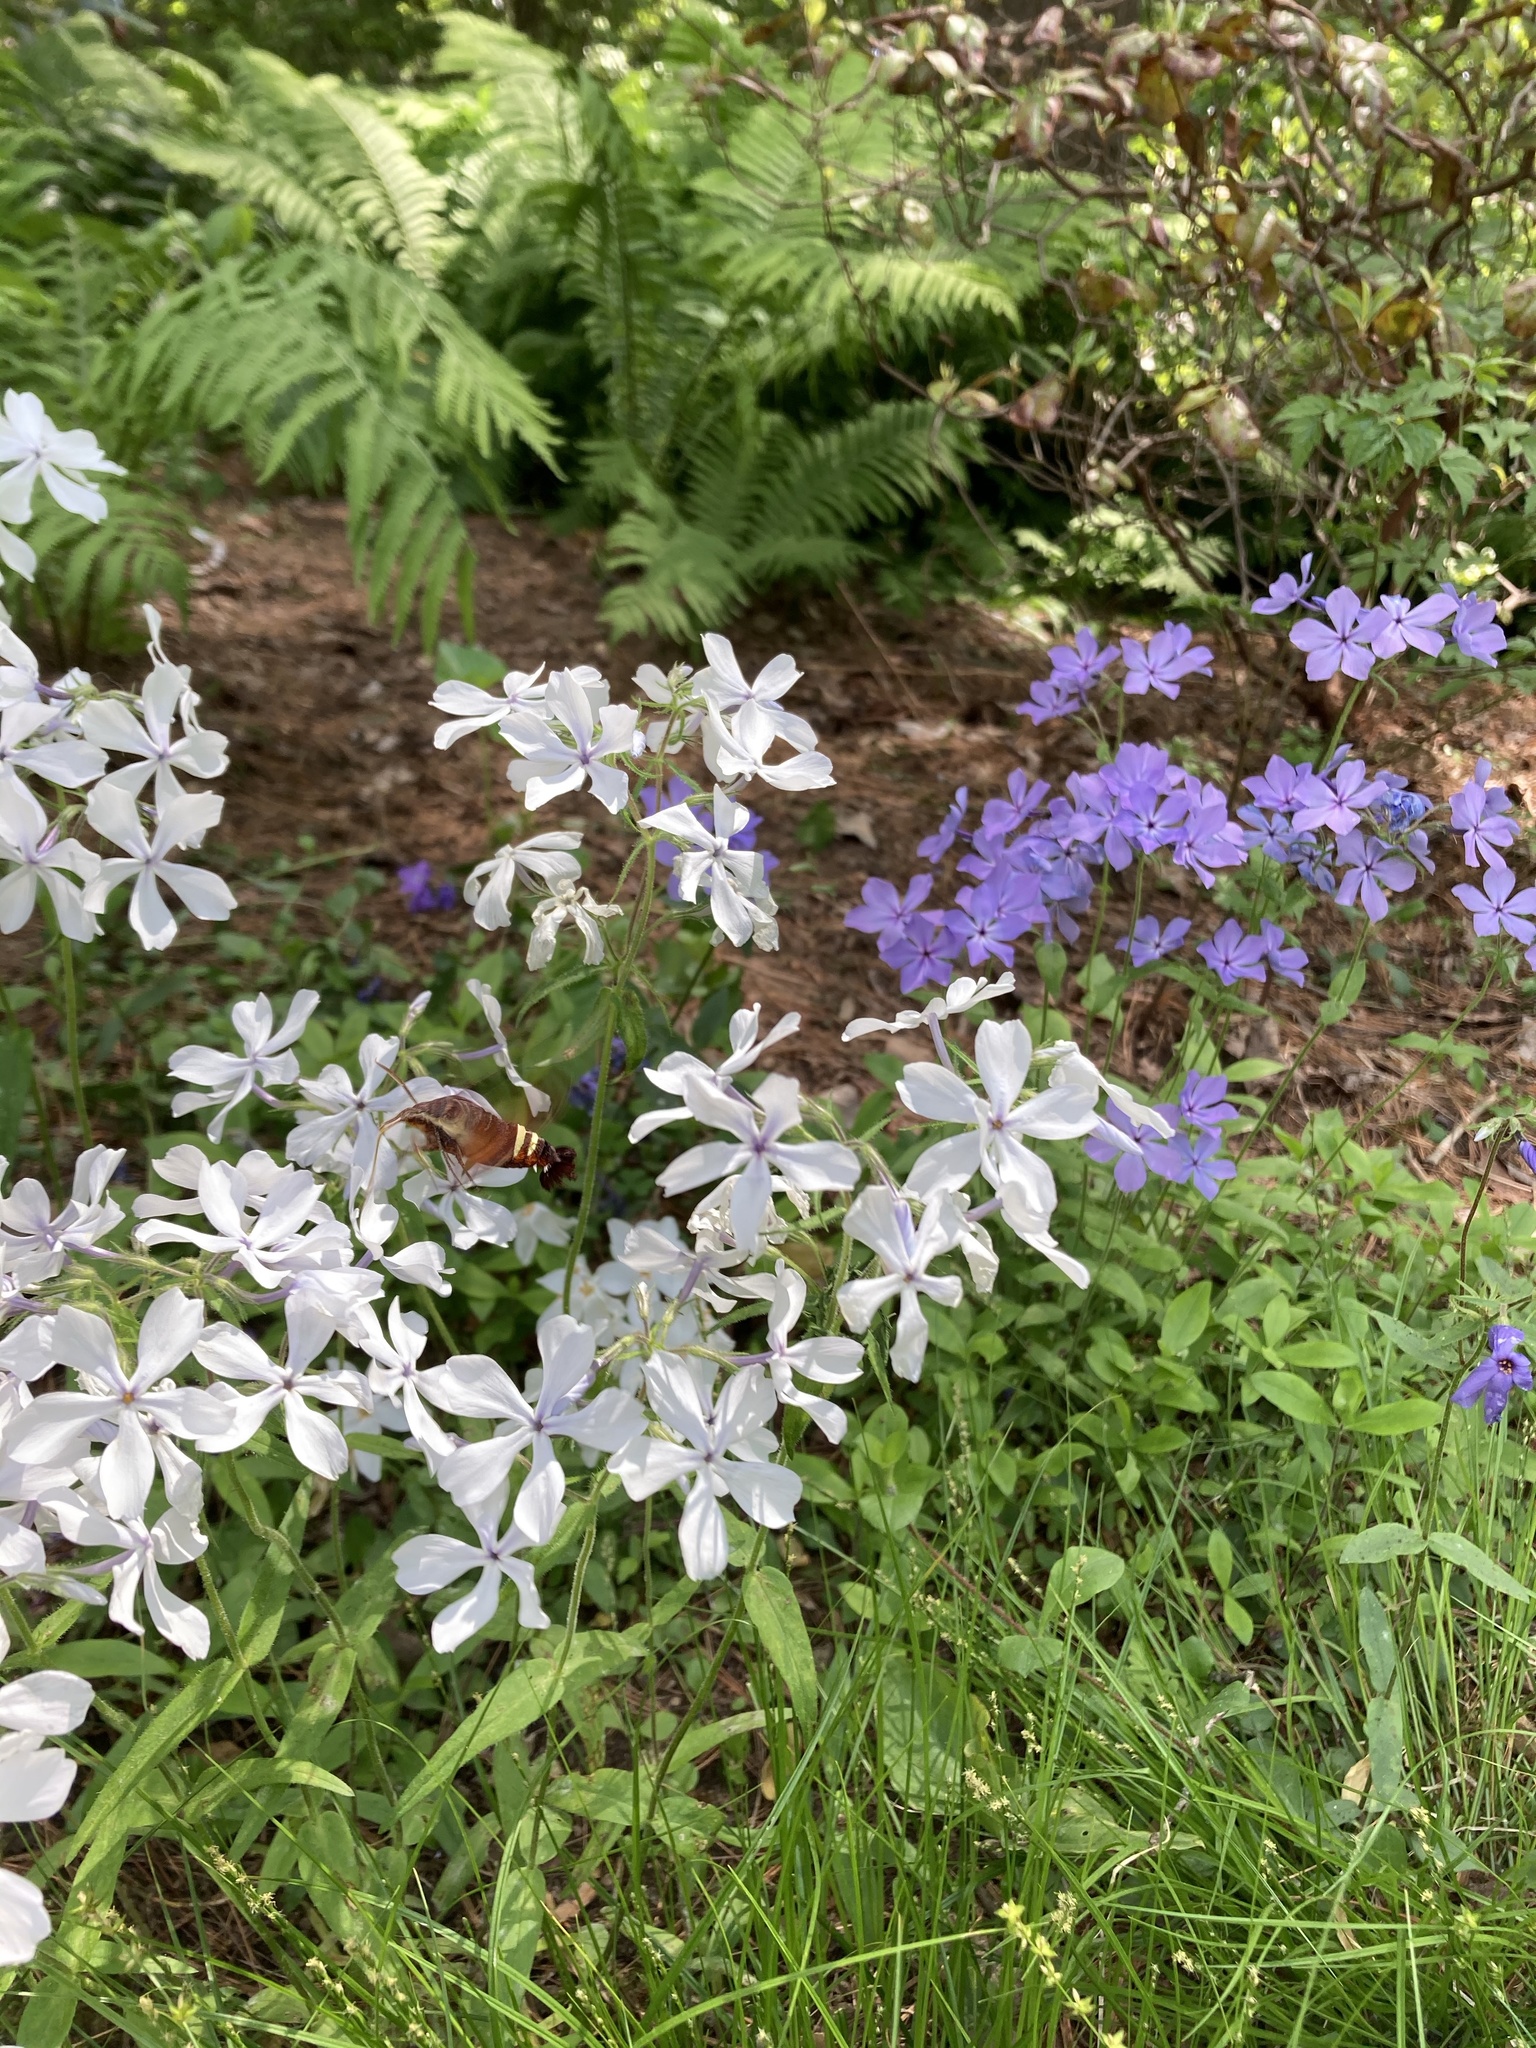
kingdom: Animalia
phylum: Arthropoda
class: Insecta
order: Lepidoptera
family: Sphingidae
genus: Amphion
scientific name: Amphion floridensis
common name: Nessus sphinx
